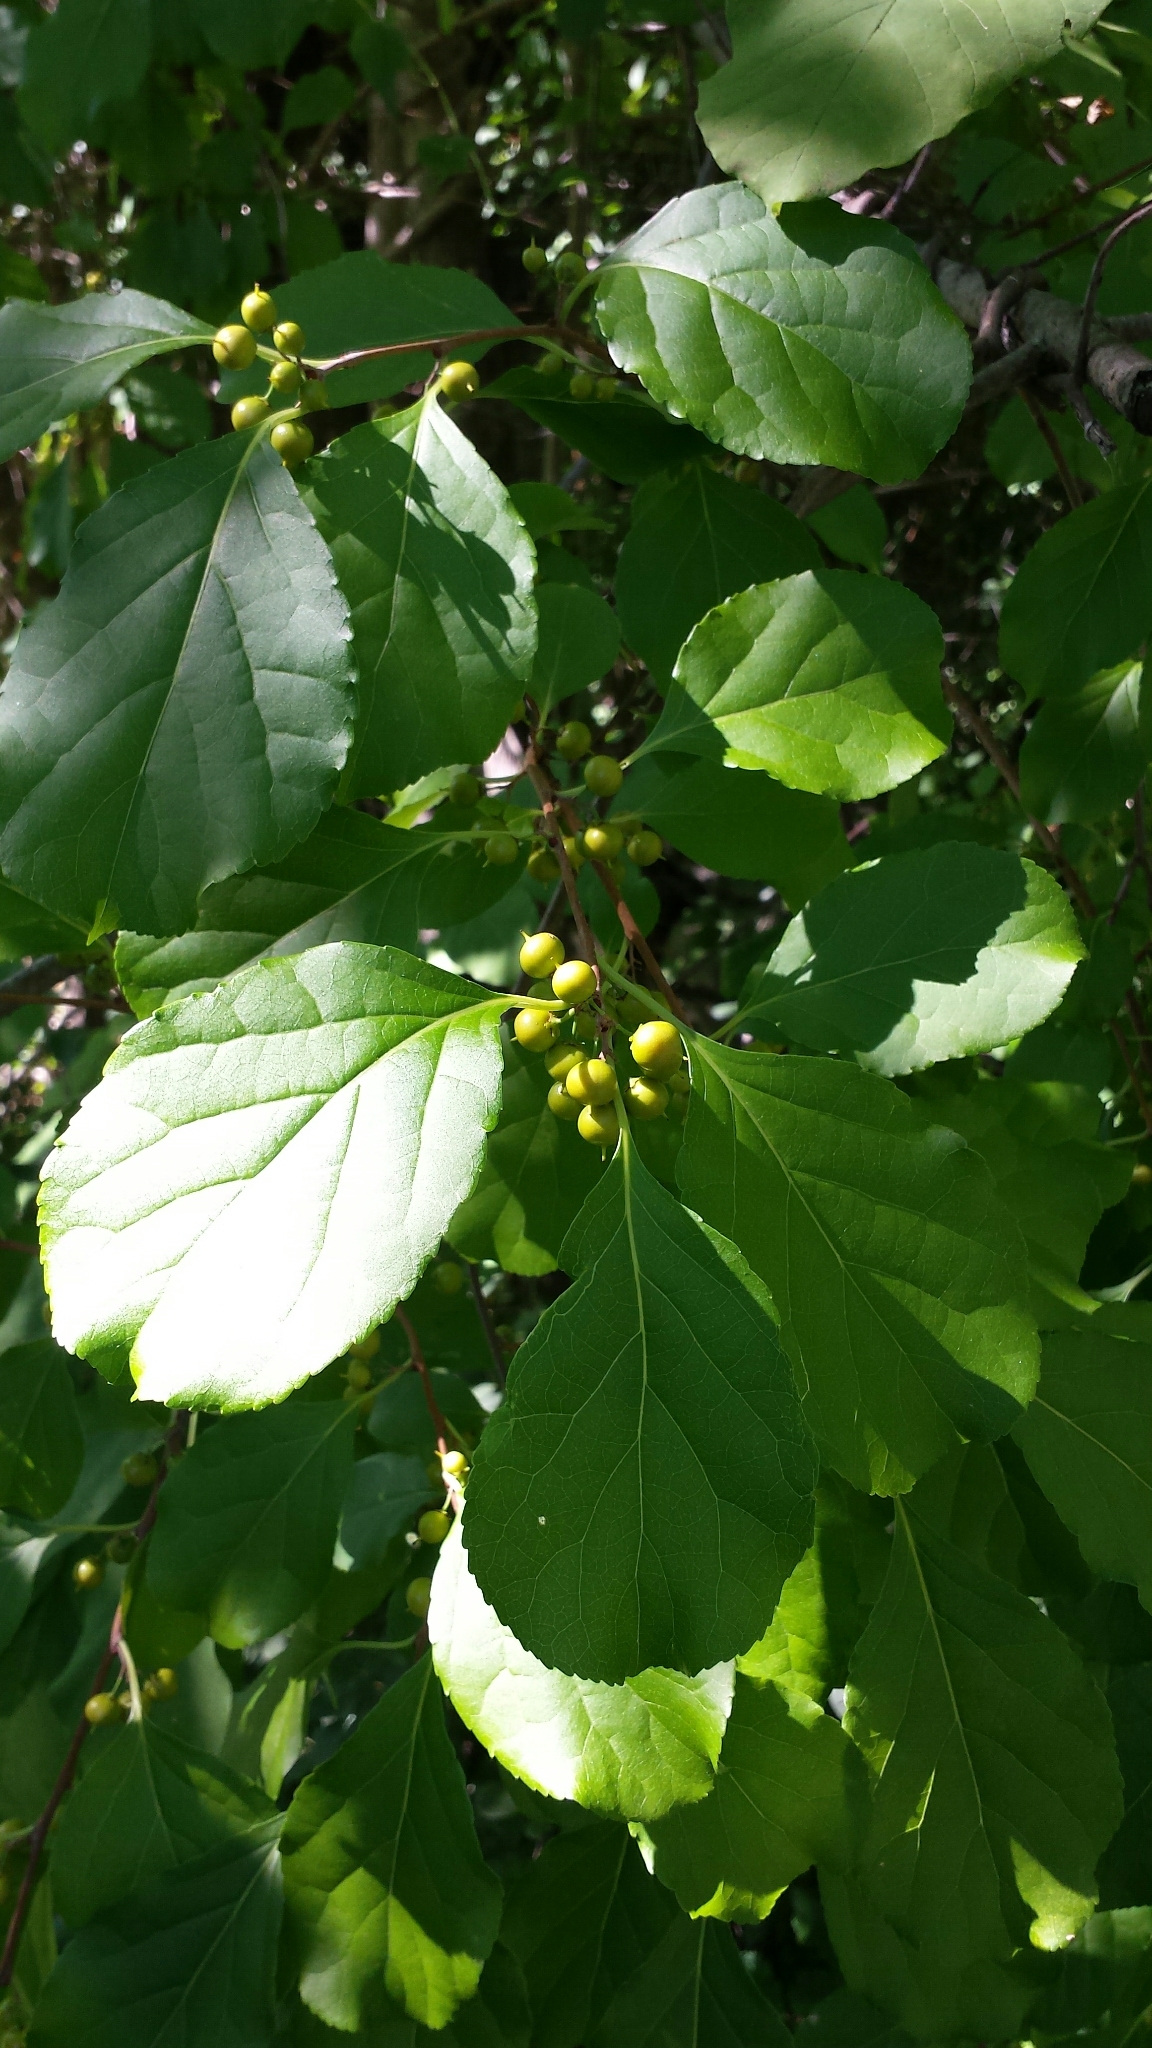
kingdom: Plantae
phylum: Tracheophyta
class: Magnoliopsida
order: Celastrales
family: Celastraceae
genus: Celastrus
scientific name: Celastrus orbiculatus
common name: Oriental bittersweet
